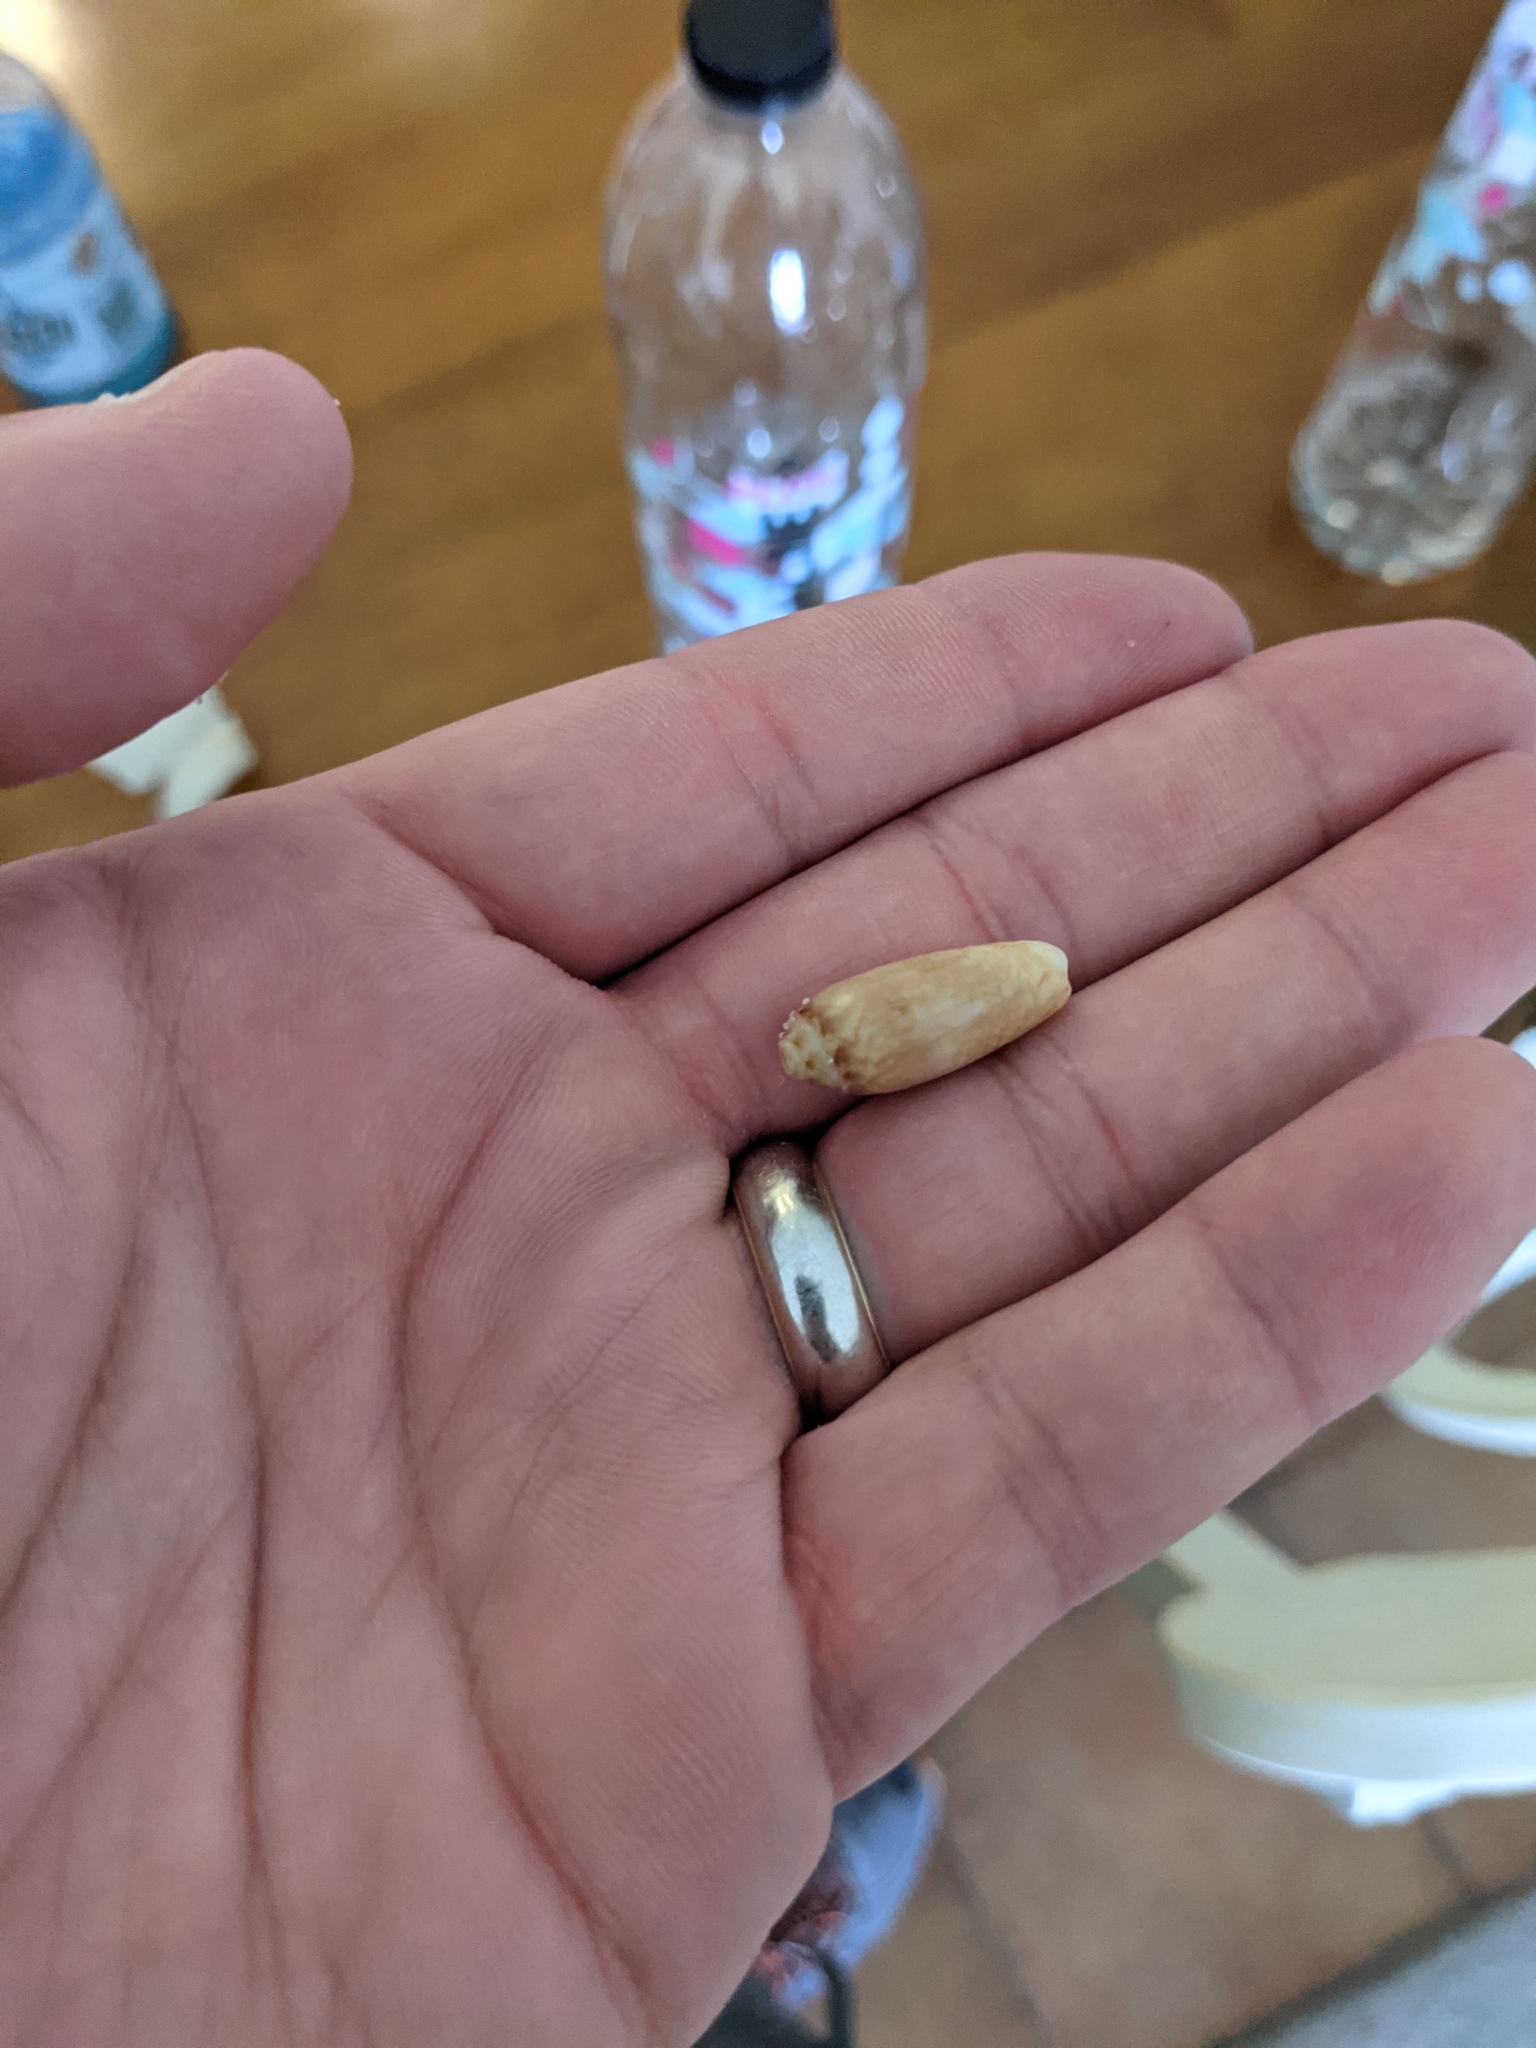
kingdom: Animalia
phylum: Mollusca
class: Gastropoda
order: Neogastropoda
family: Olividae
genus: Oliva
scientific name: Oliva sayana
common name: Lettered olive
